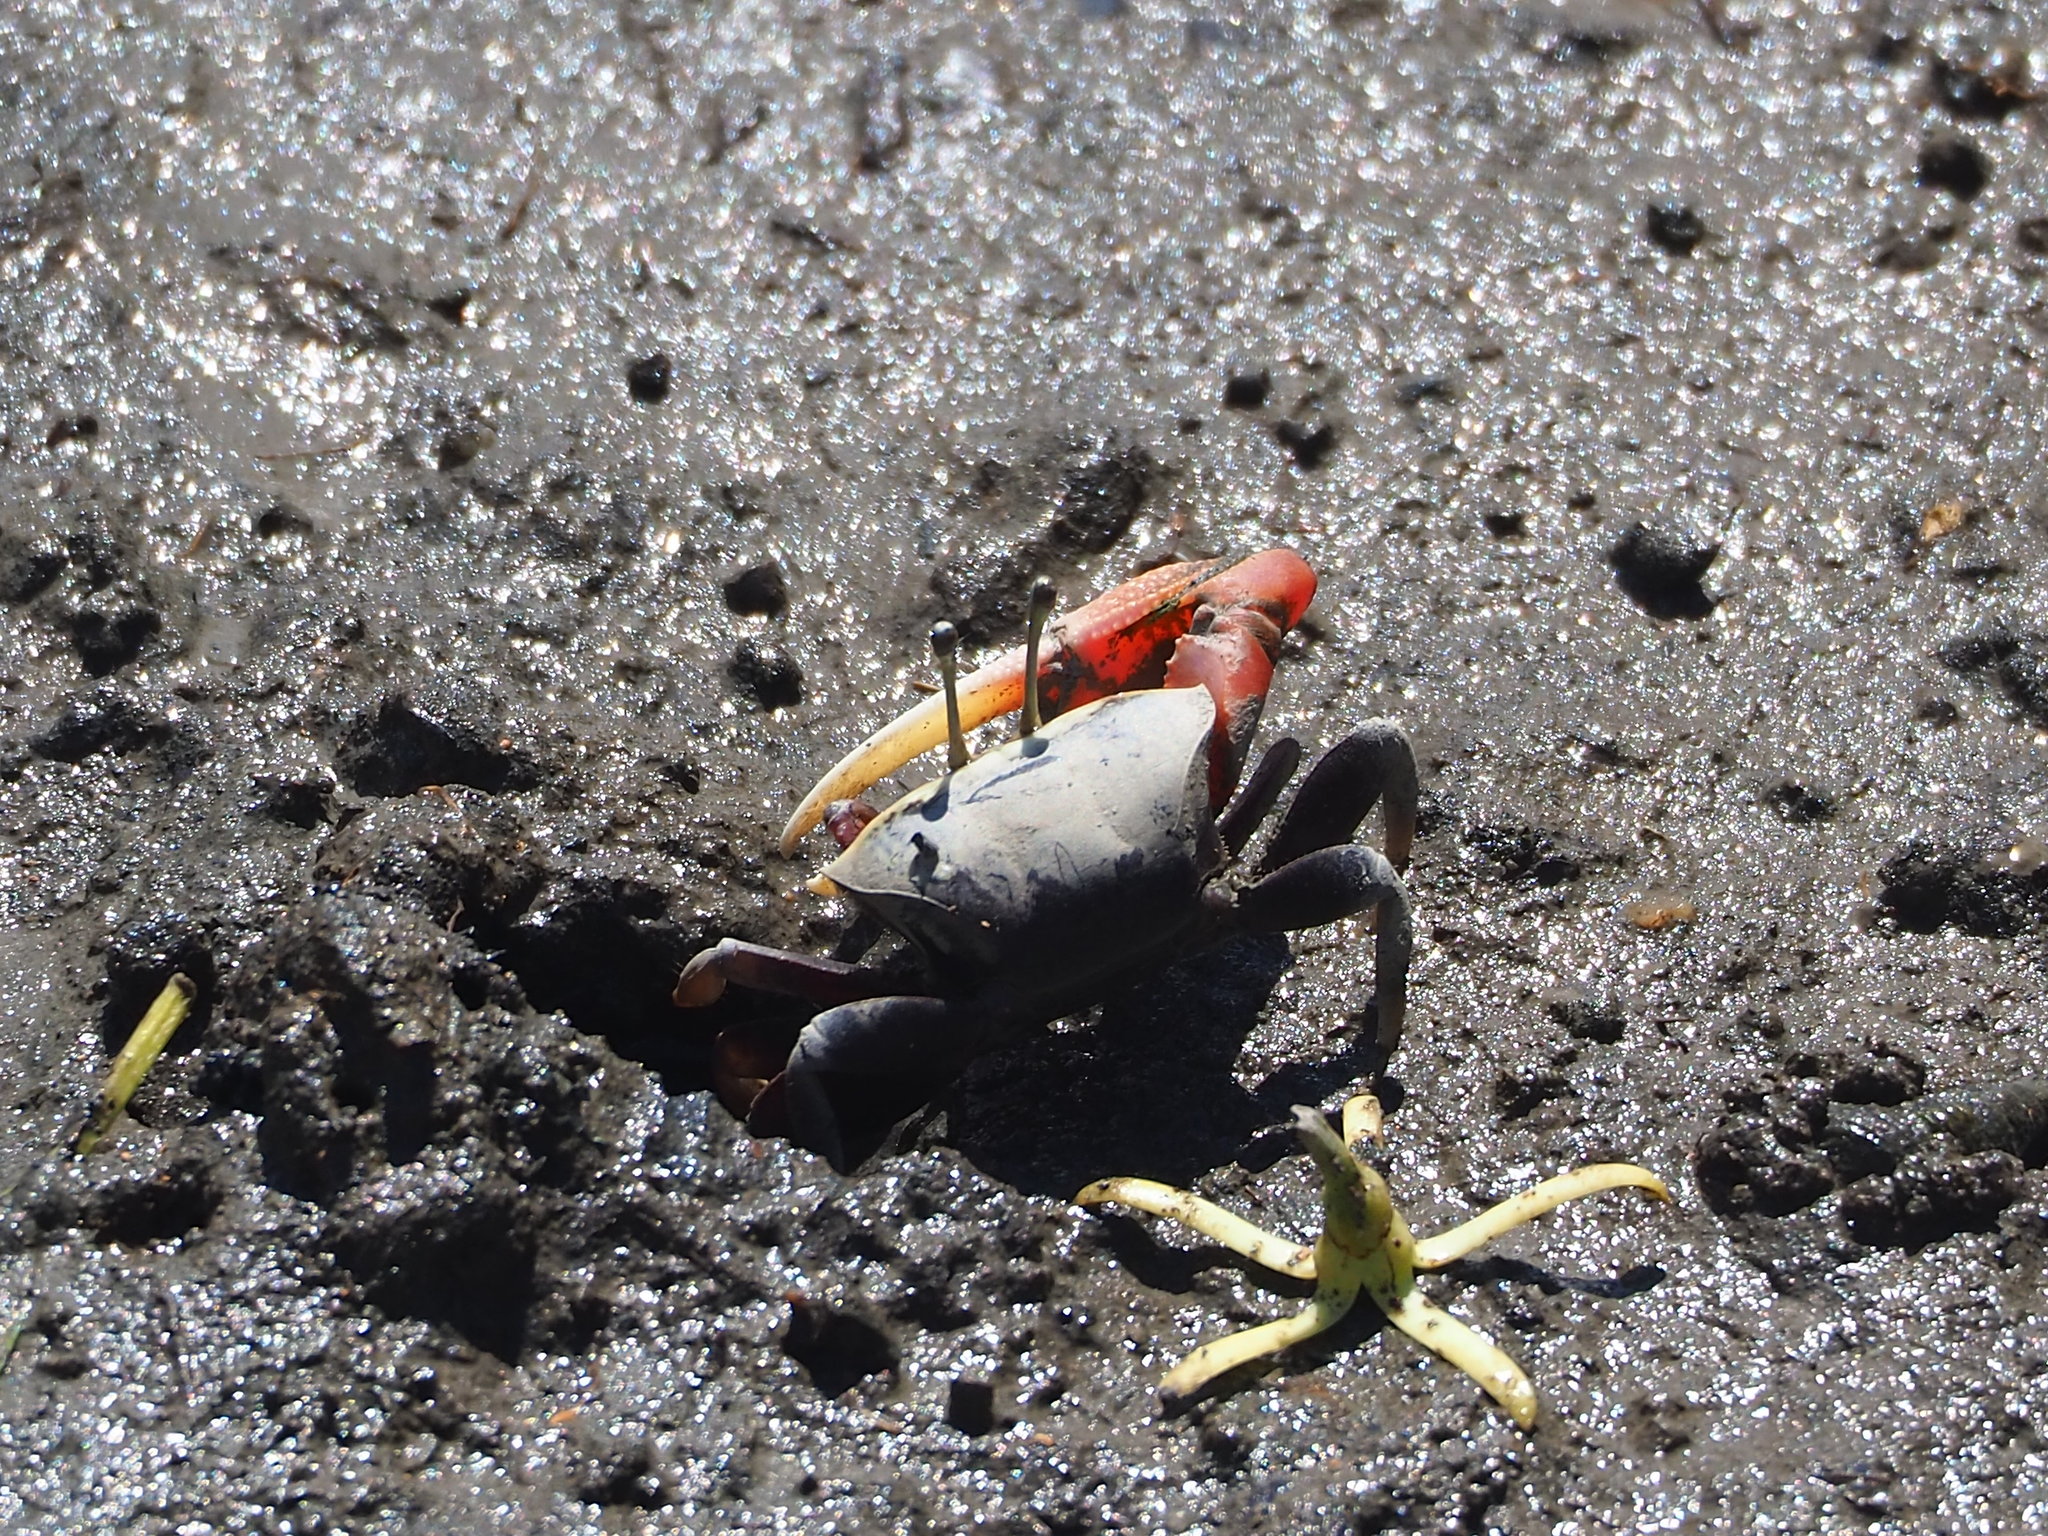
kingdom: Animalia
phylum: Arthropoda
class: Malacostraca
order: Decapoda
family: Ocypodidae
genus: Tubuca
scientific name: Tubuca arcuata
